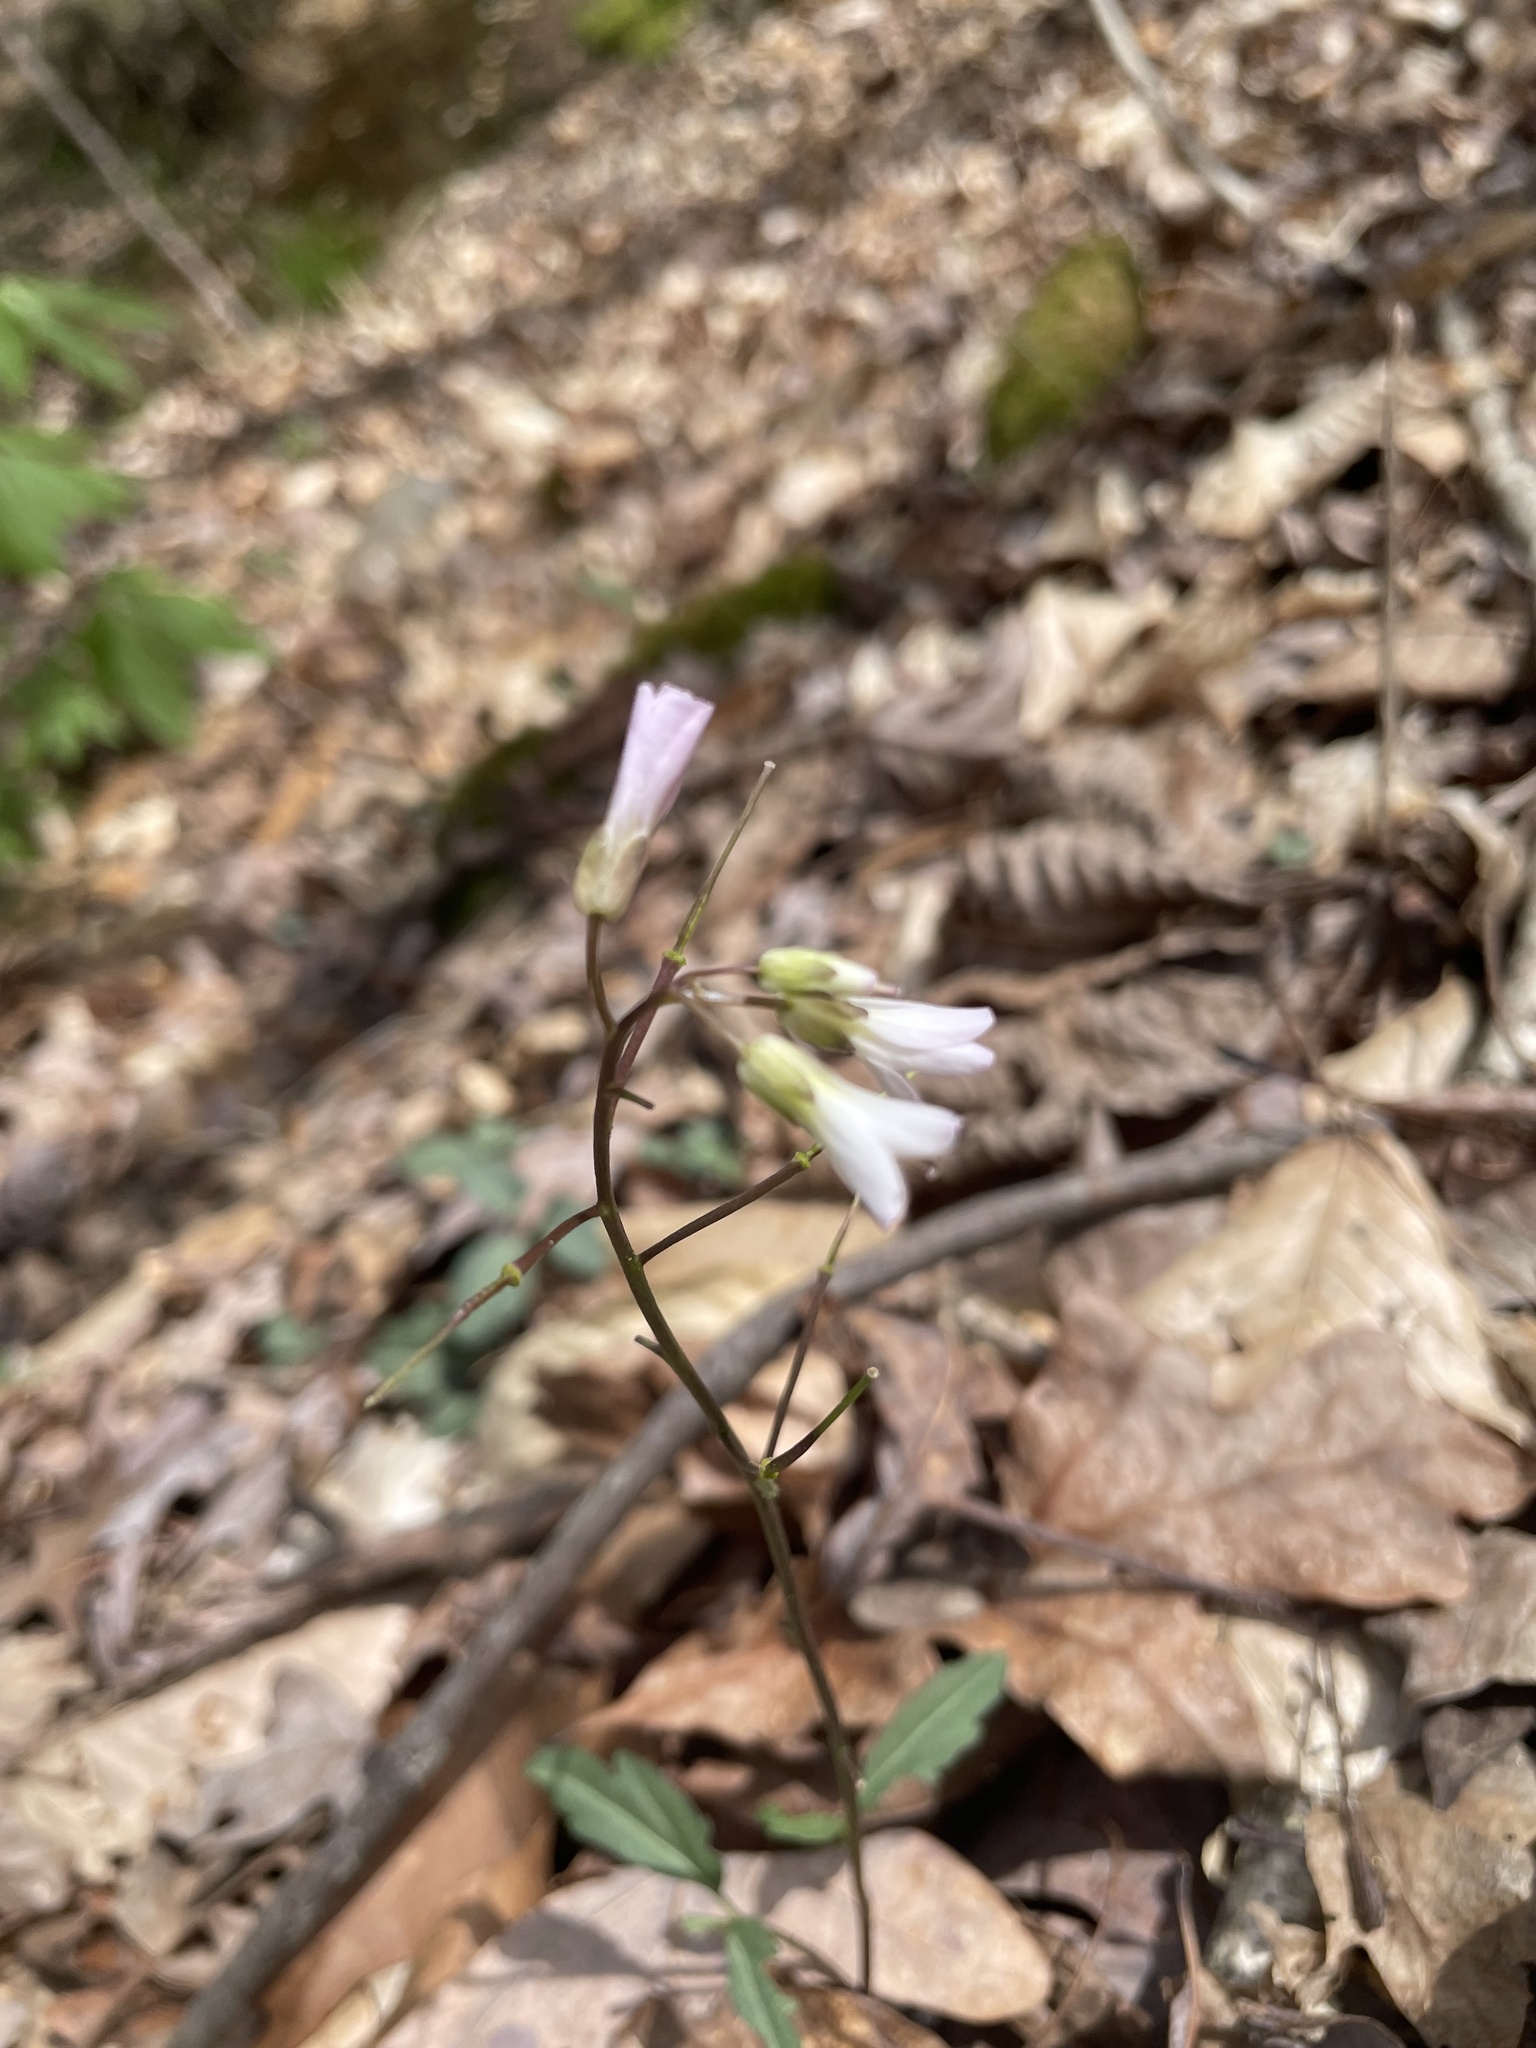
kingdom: Plantae
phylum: Tracheophyta
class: Magnoliopsida
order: Brassicales
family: Brassicaceae
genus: Cardamine
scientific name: Cardamine angustata
